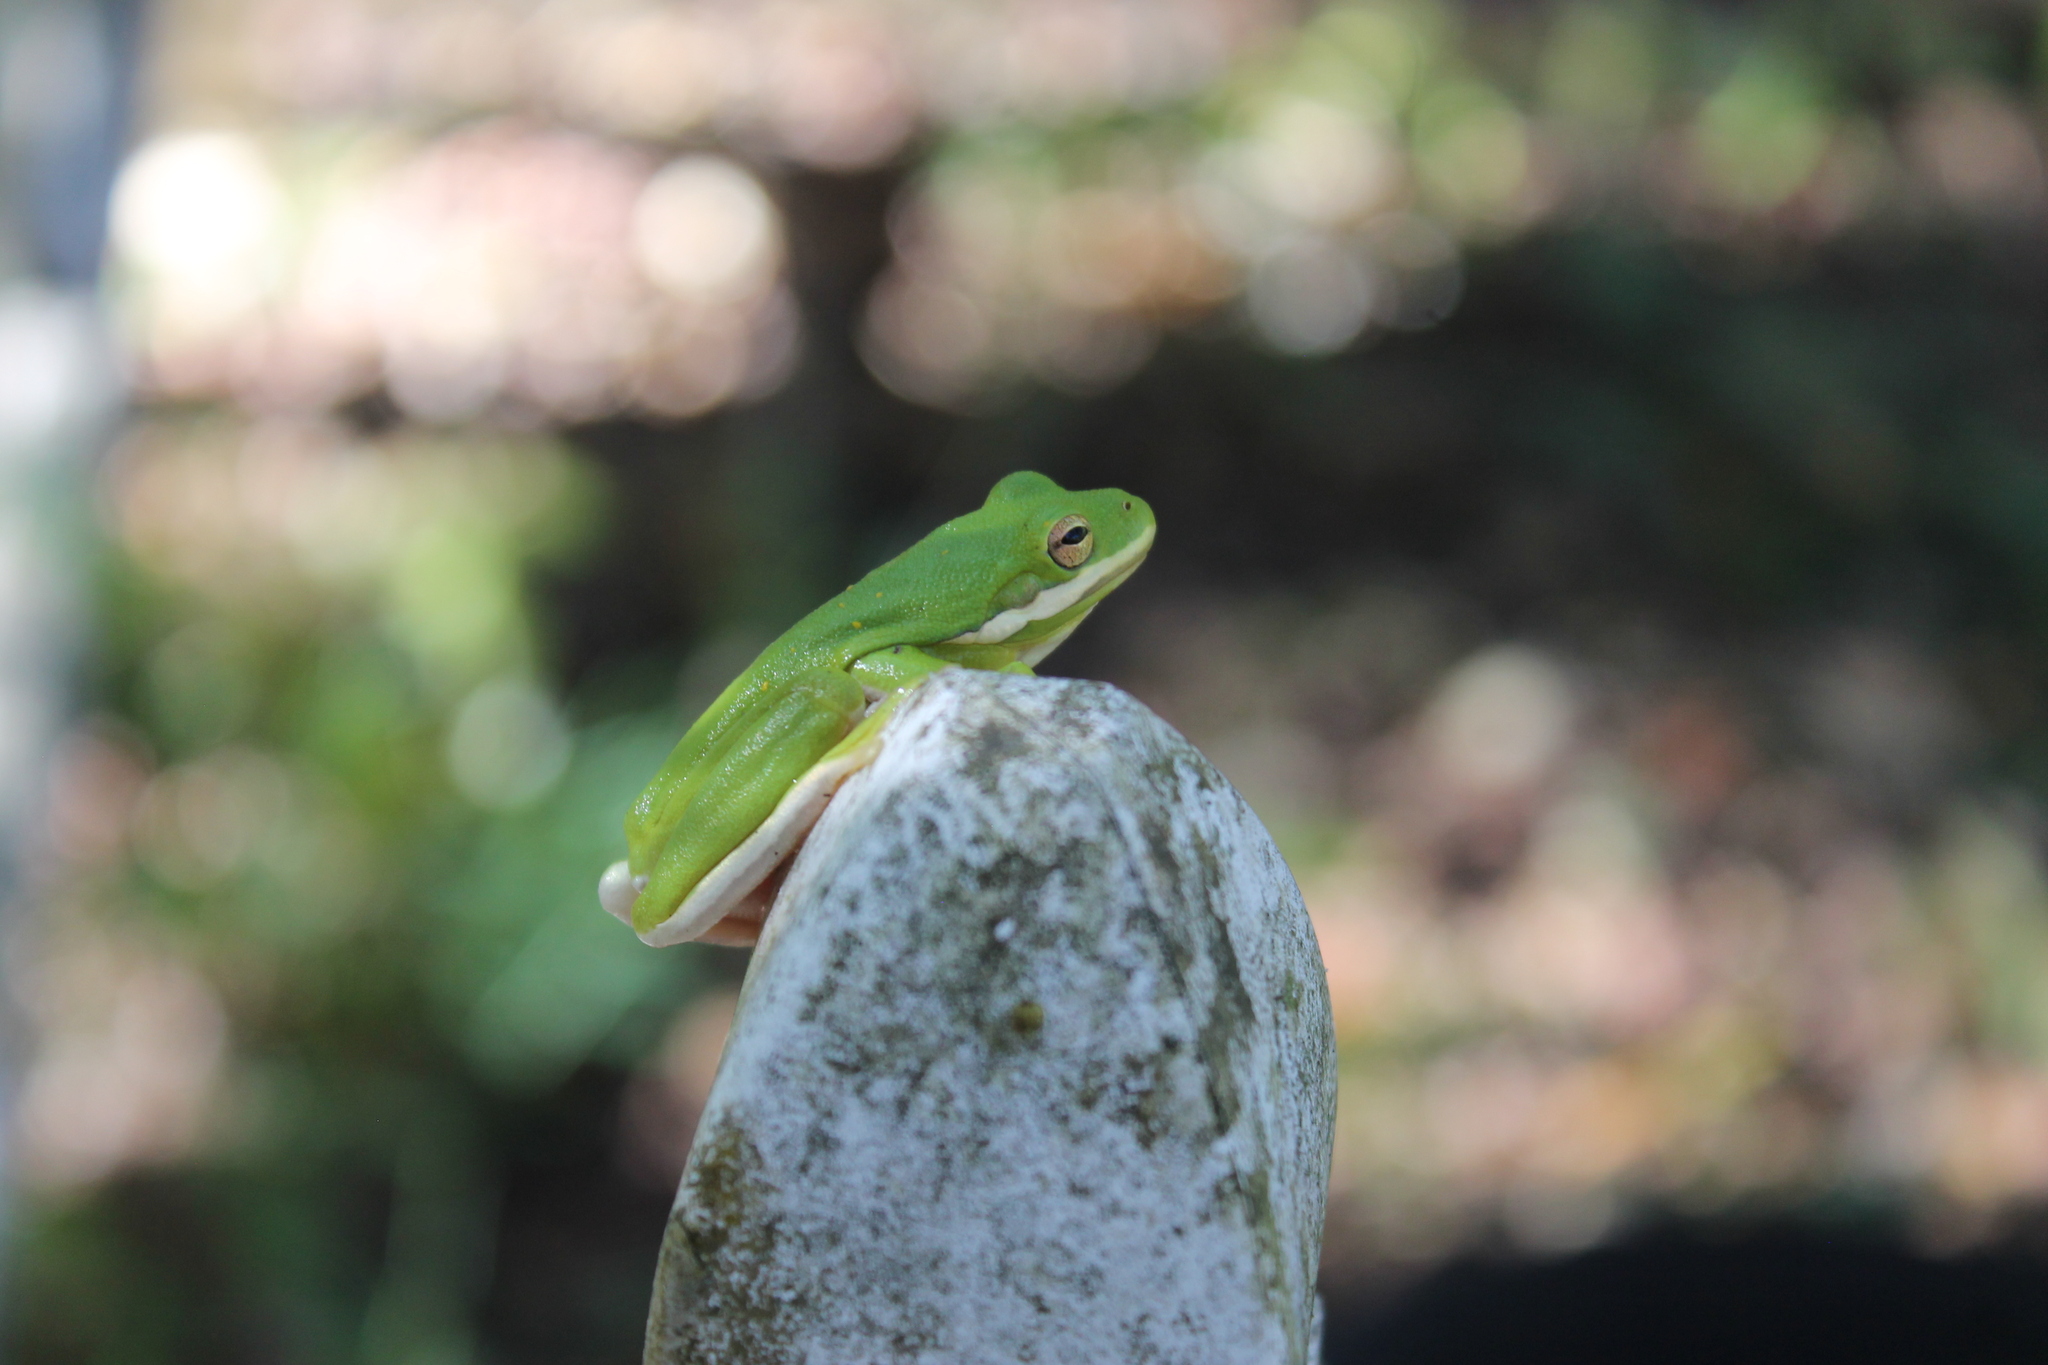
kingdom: Animalia
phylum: Chordata
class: Amphibia
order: Anura
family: Hylidae
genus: Dryophytes
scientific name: Dryophytes cinereus
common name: Green treefrog
